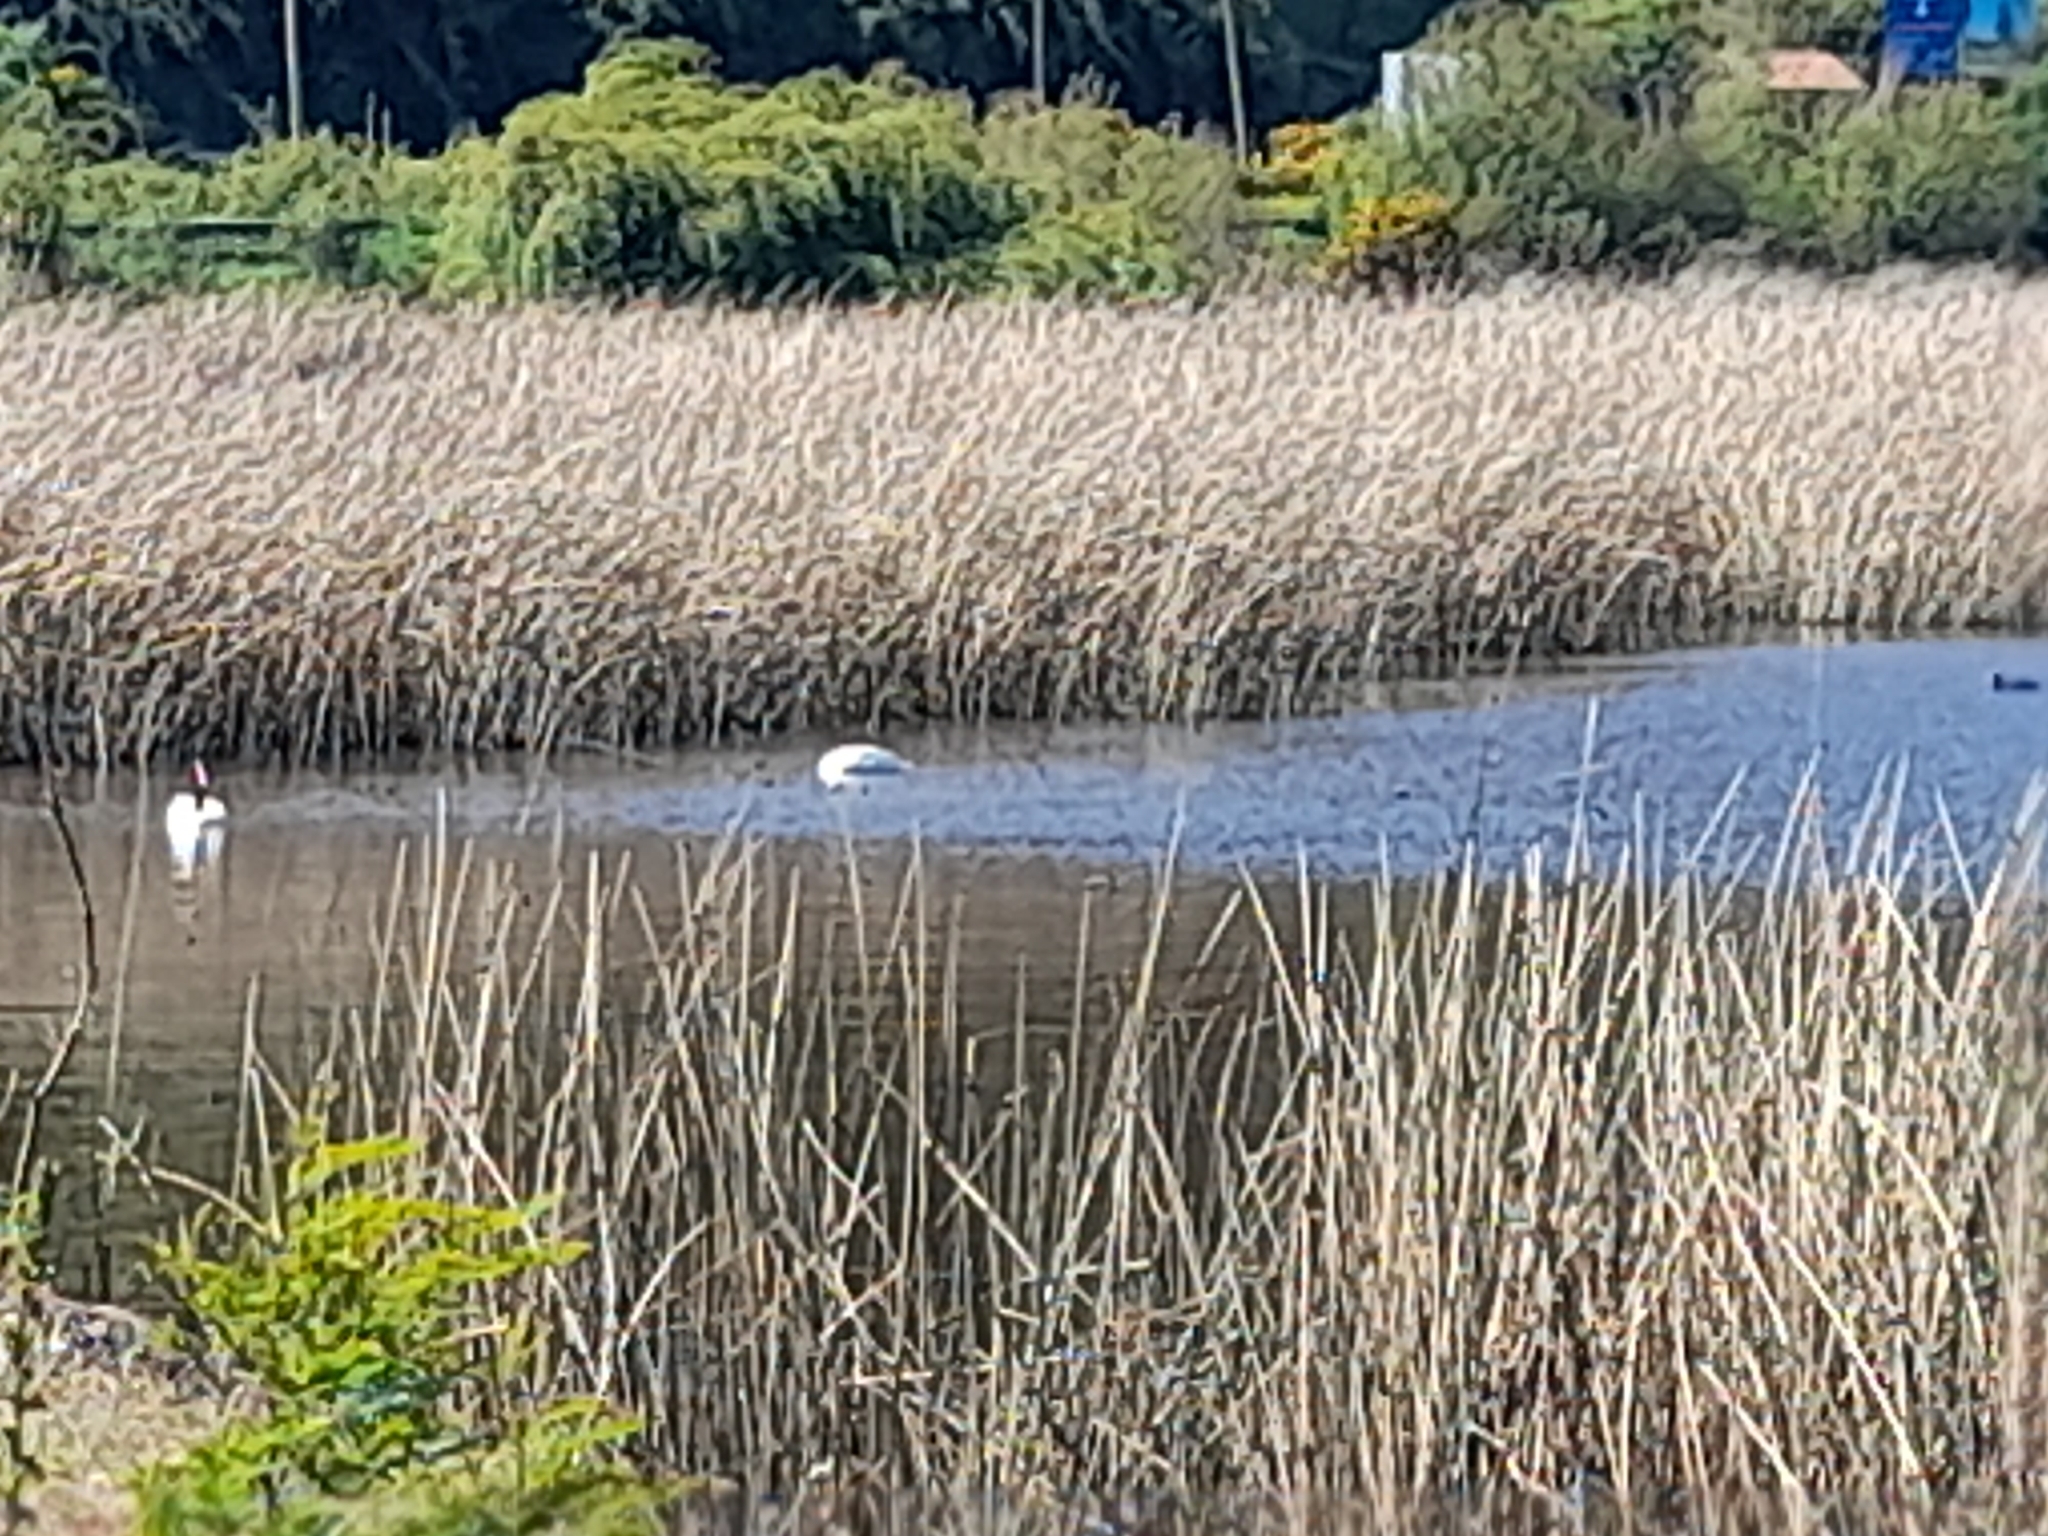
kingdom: Animalia
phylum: Chordata
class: Aves
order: Anseriformes
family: Anatidae
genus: Cygnus
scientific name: Cygnus melancoryphus
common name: Black-necked swan
